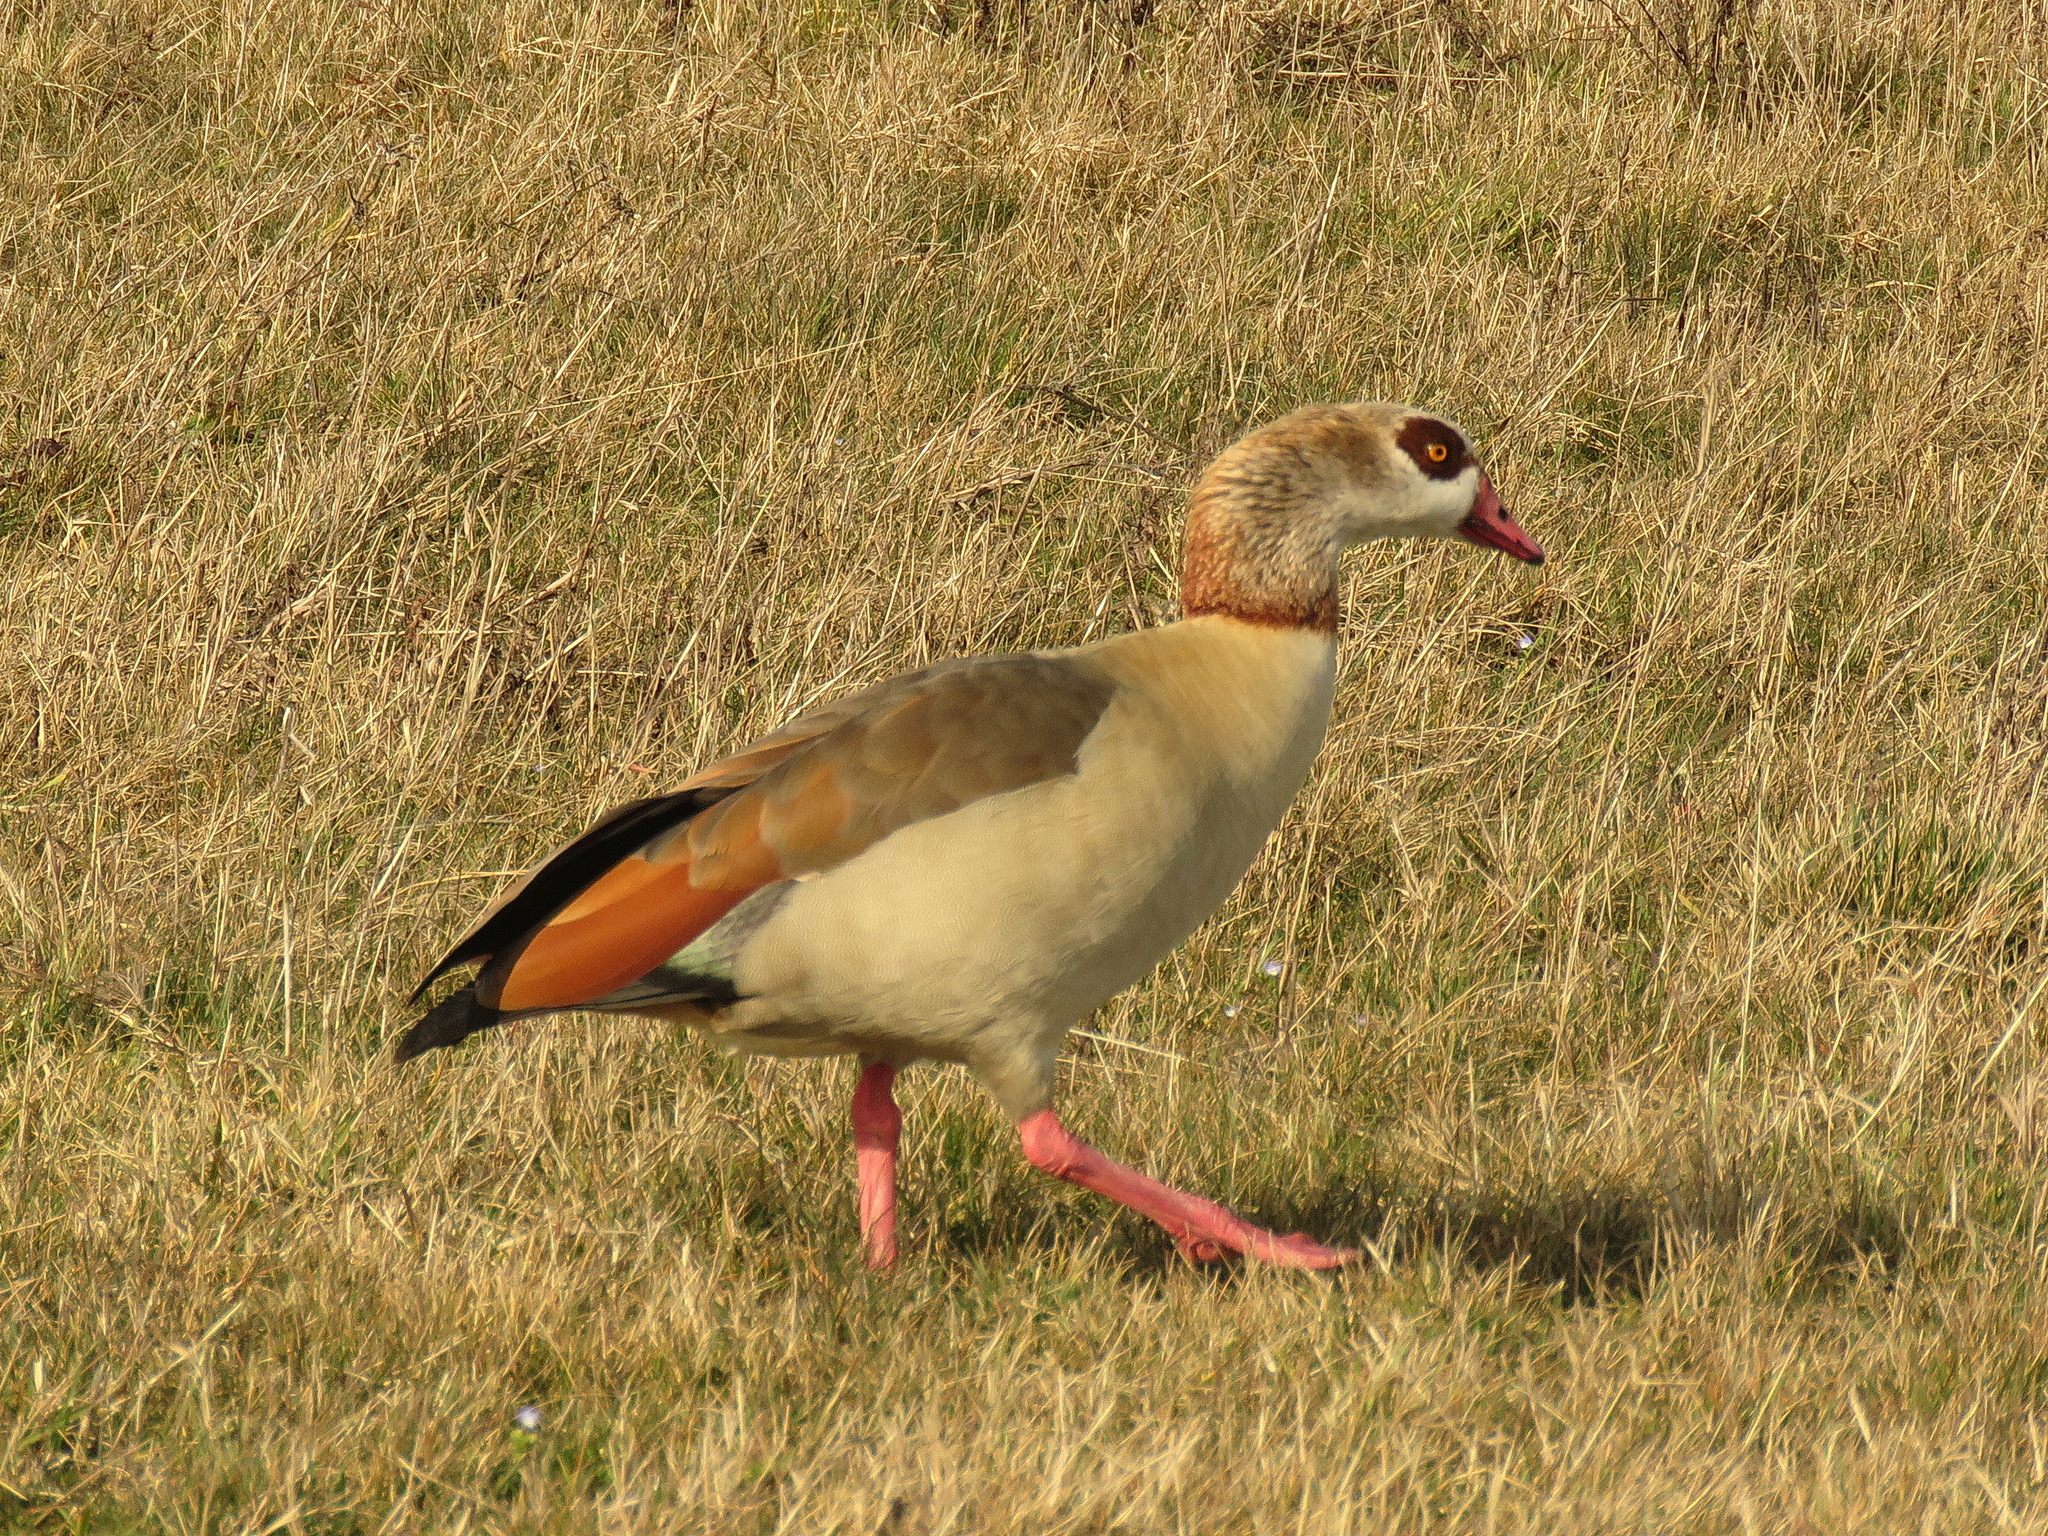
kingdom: Animalia
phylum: Chordata
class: Aves
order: Anseriformes
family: Anatidae
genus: Alopochen
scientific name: Alopochen aegyptiaca
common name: Egyptian goose
